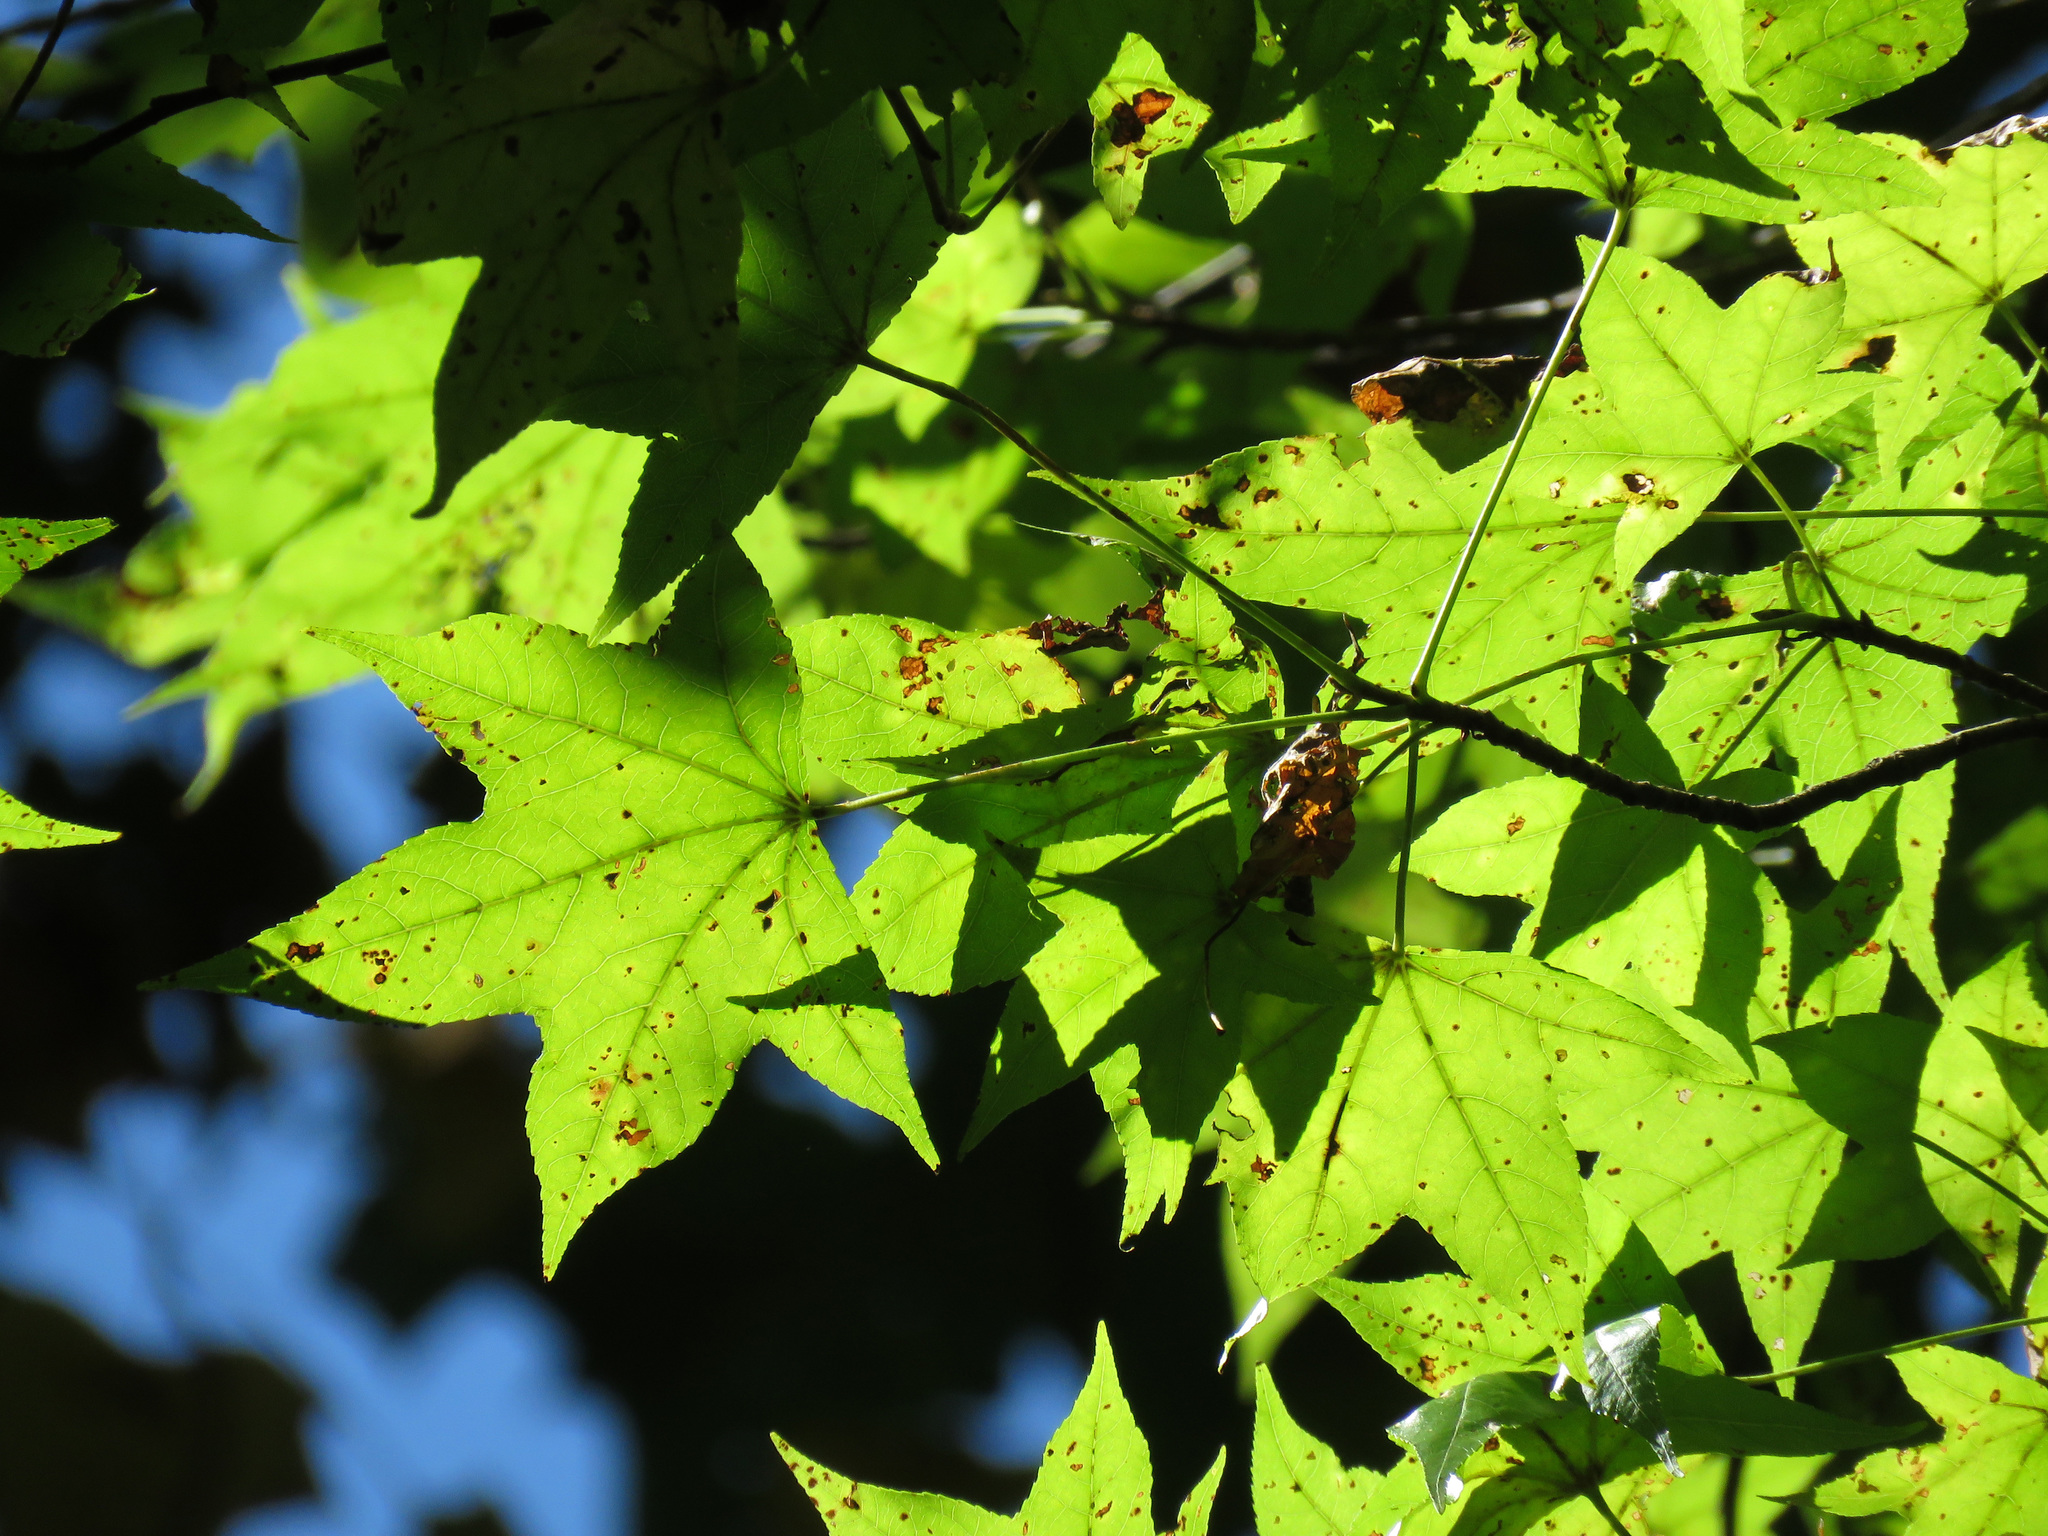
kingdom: Plantae
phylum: Tracheophyta
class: Magnoliopsida
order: Saxifragales
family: Altingiaceae
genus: Liquidambar
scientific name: Liquidambar styraciflua
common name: Sweet gum
